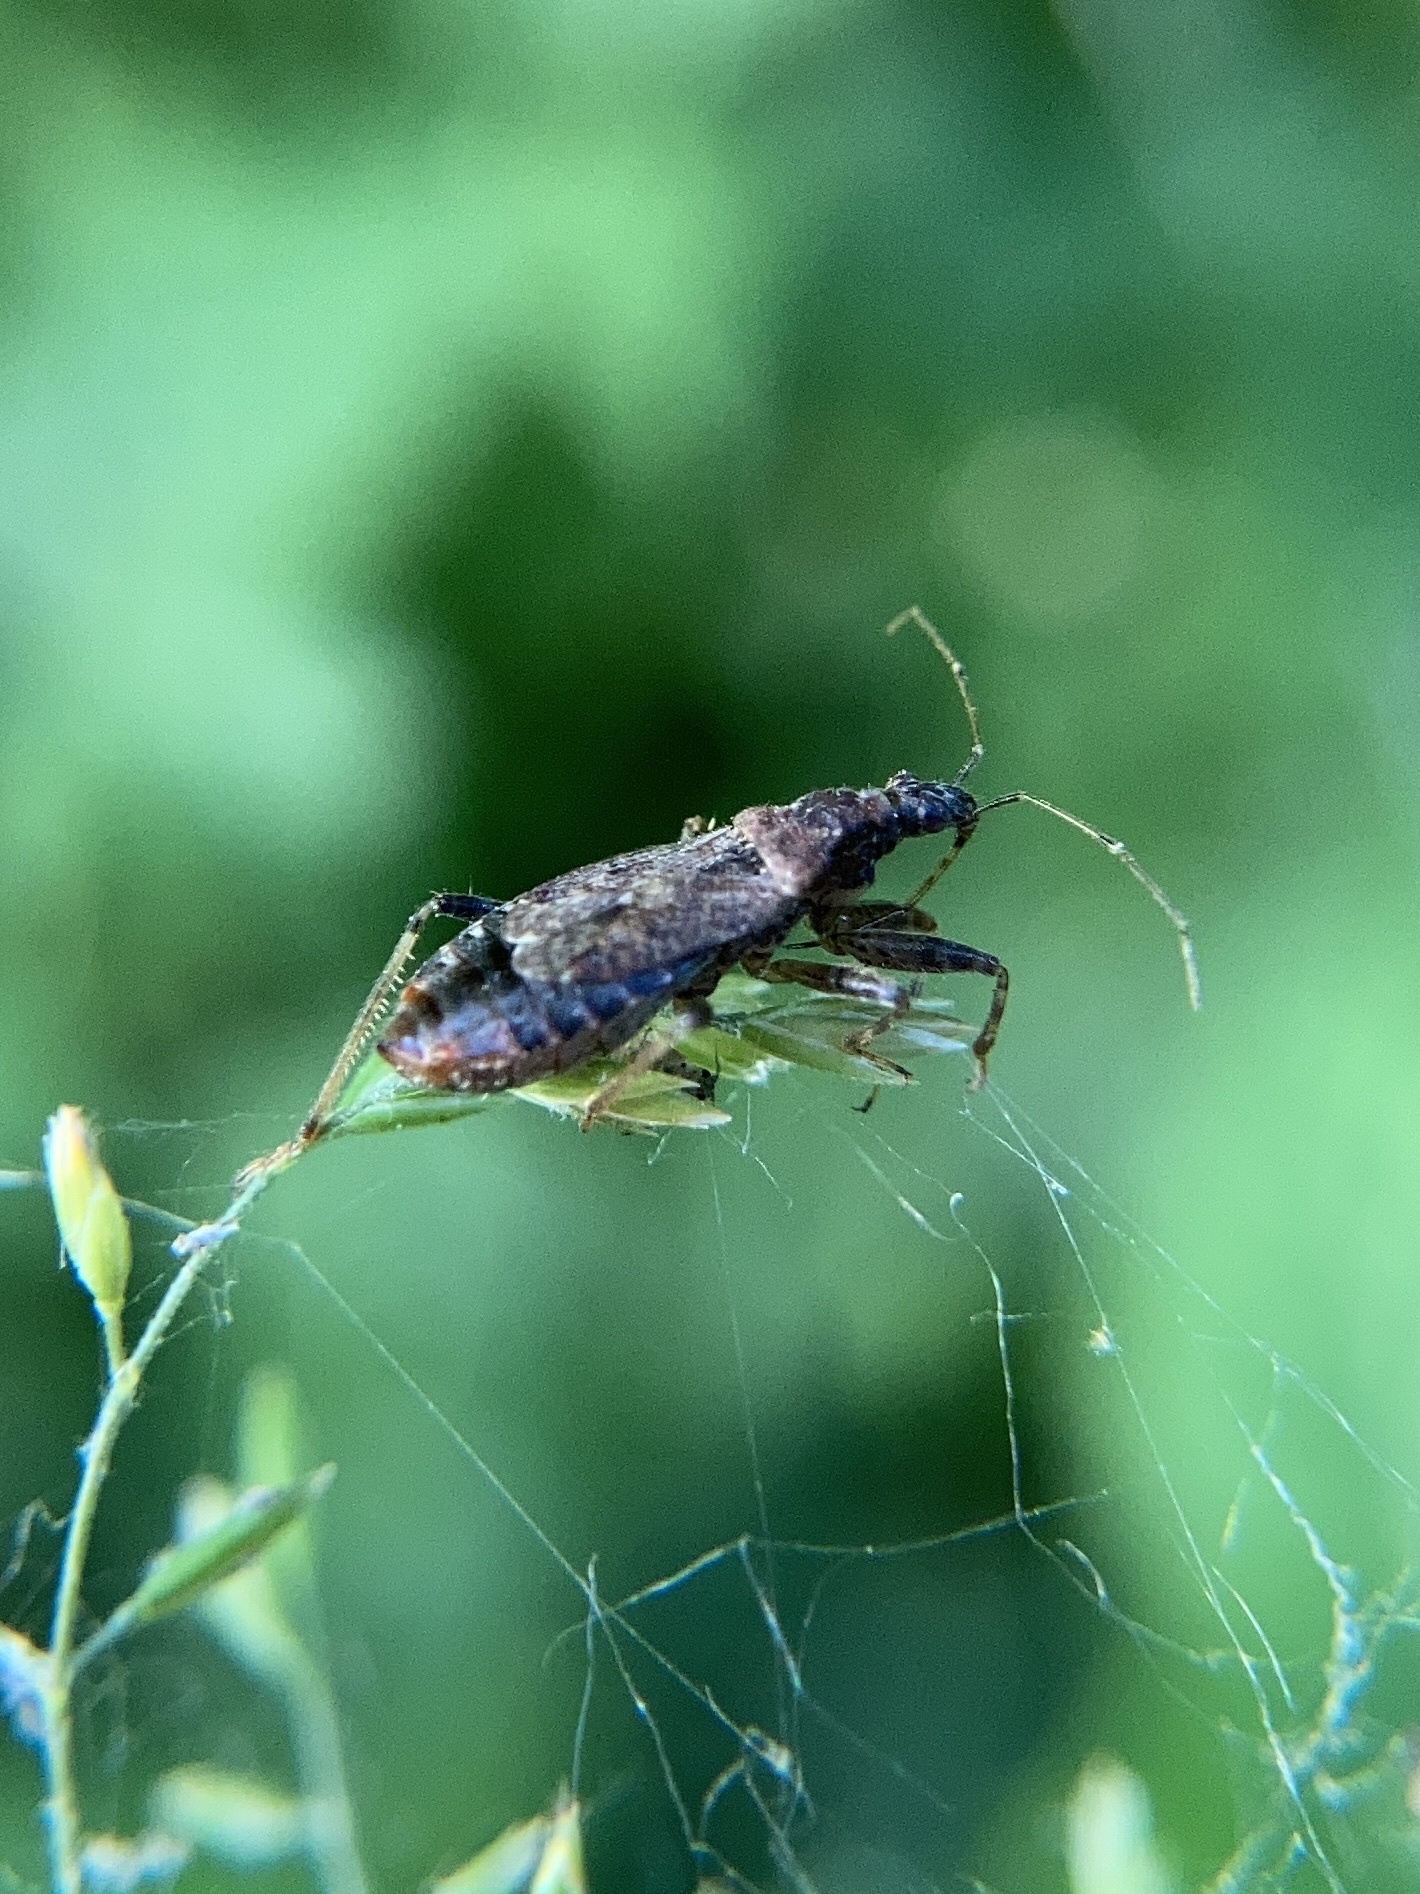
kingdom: Animalia
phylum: Arthropoda
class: Insecta
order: Hemiptera
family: Nabidae
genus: Himacerus
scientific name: Himacerus mirmicoides
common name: Ant damsel bug
